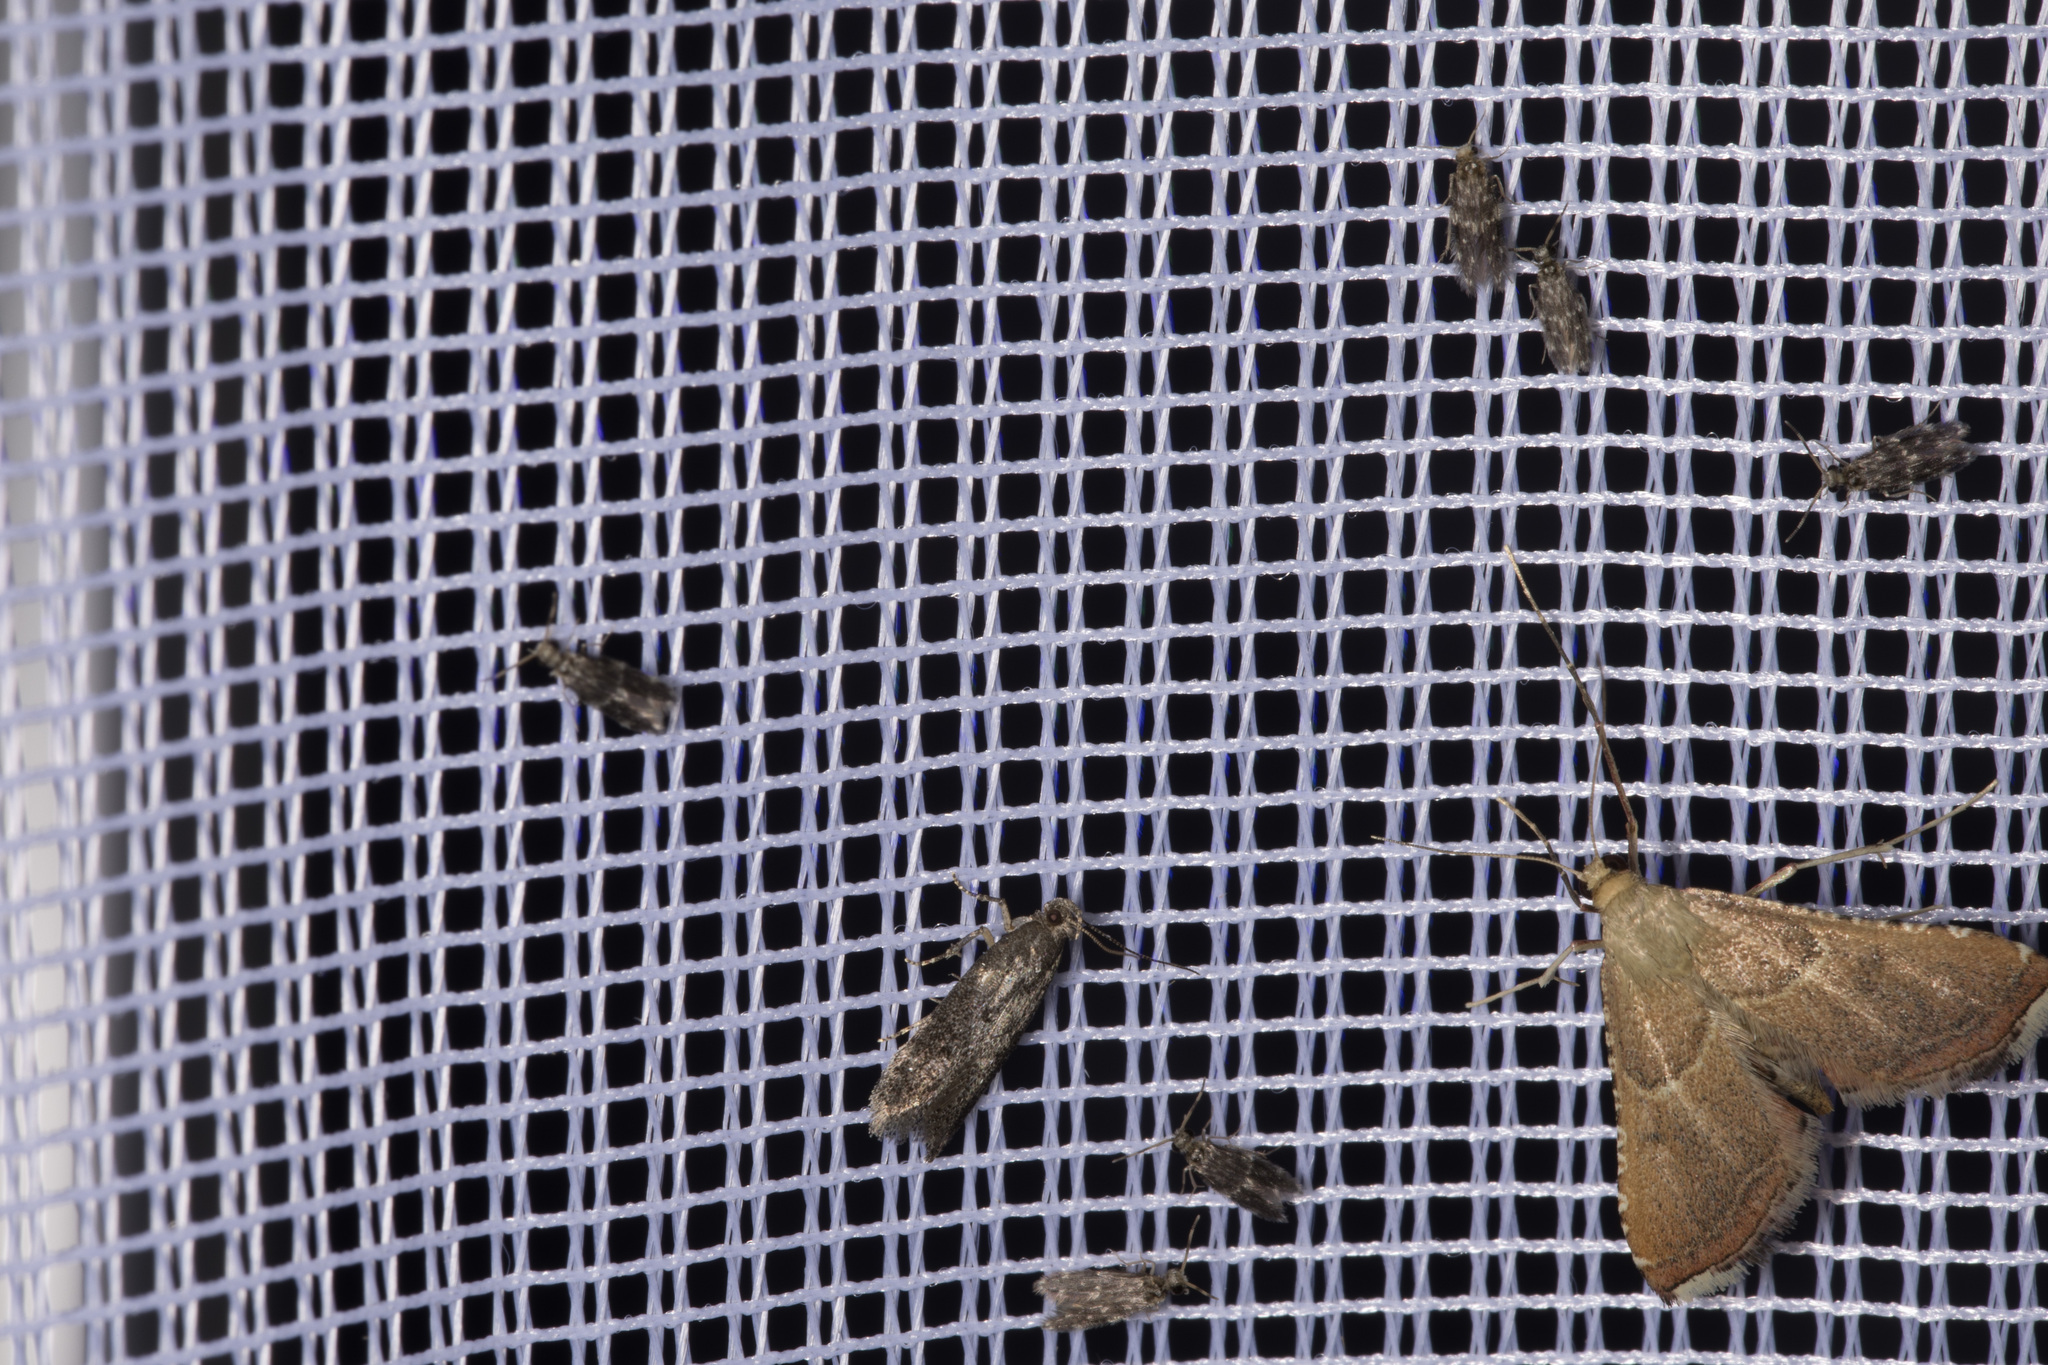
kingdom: Animalia
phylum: Arthropoda
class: Insecta
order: Lepidoptera
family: Pyralidae
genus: Endotricha
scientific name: Endotricha flammealis
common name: Rosy tabby
